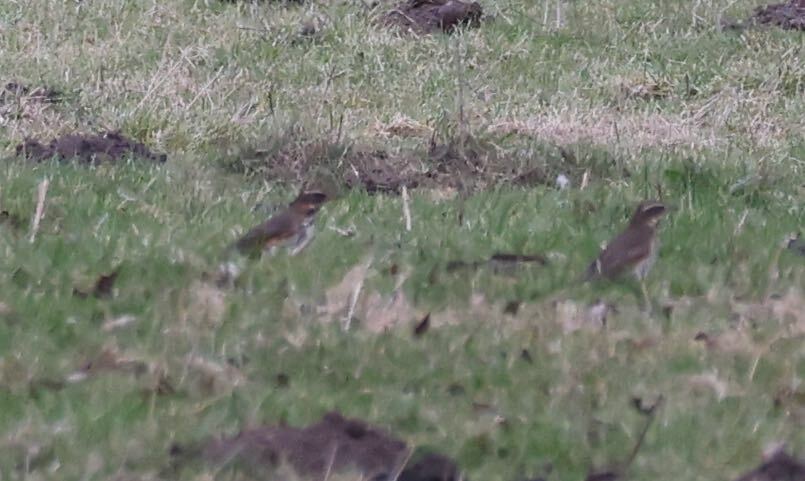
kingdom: Animalia
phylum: Chordata
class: Aves
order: Passeriformes
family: Turdidae
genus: Turdus
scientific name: Turdus iliacus
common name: Redwing
